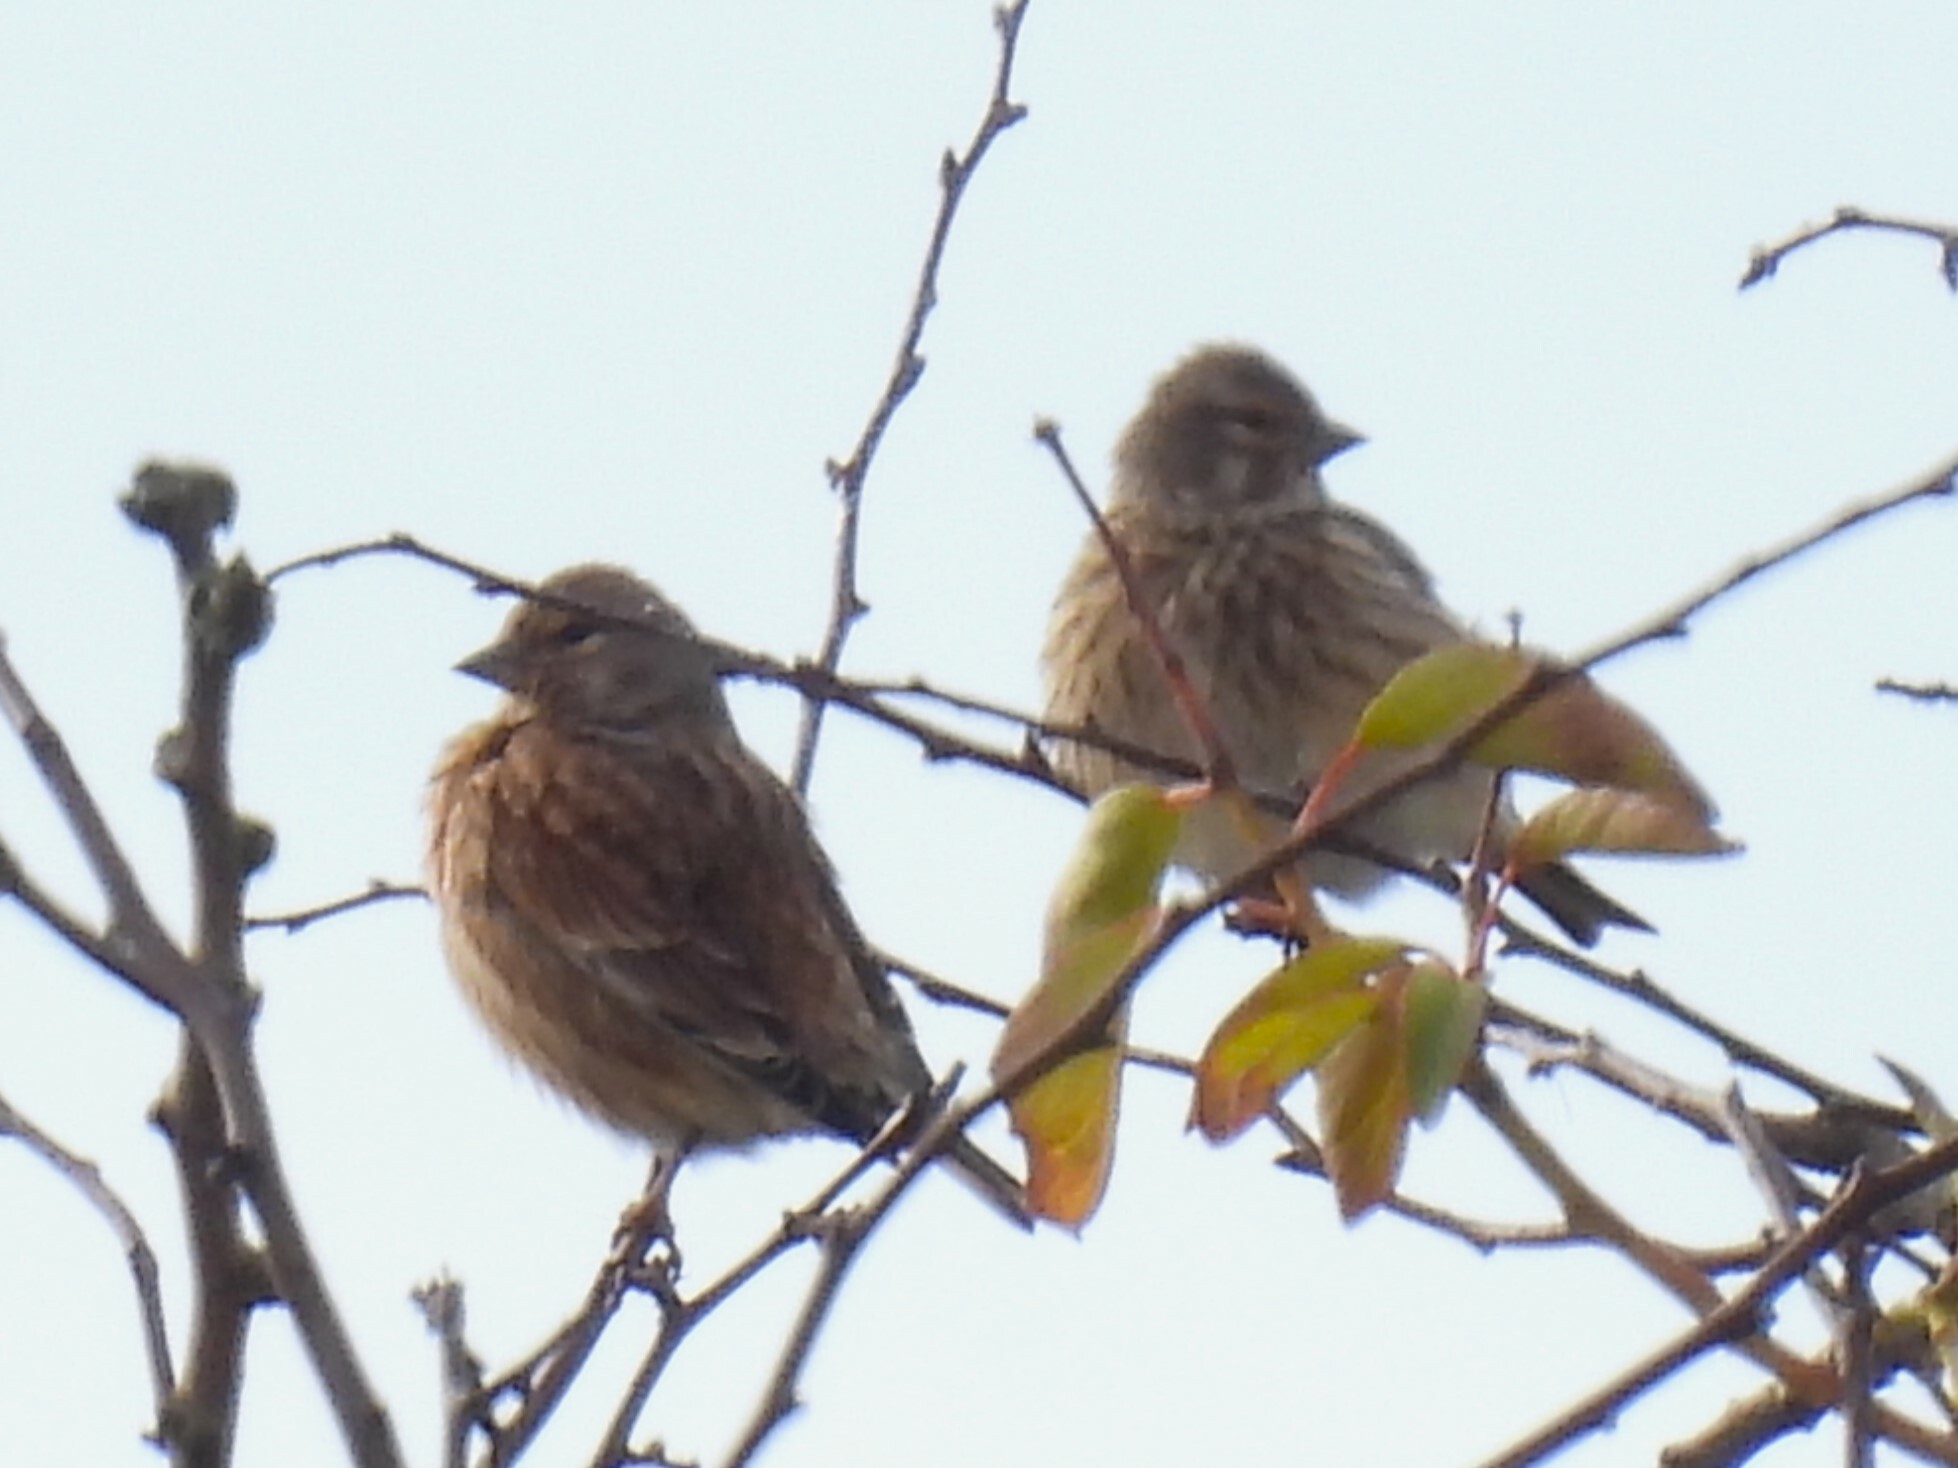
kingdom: Animalia
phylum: Chordata
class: Aves
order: Passeriformes
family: Fringillidae
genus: Linaria
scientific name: Linaria cannabina
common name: Common linnet
